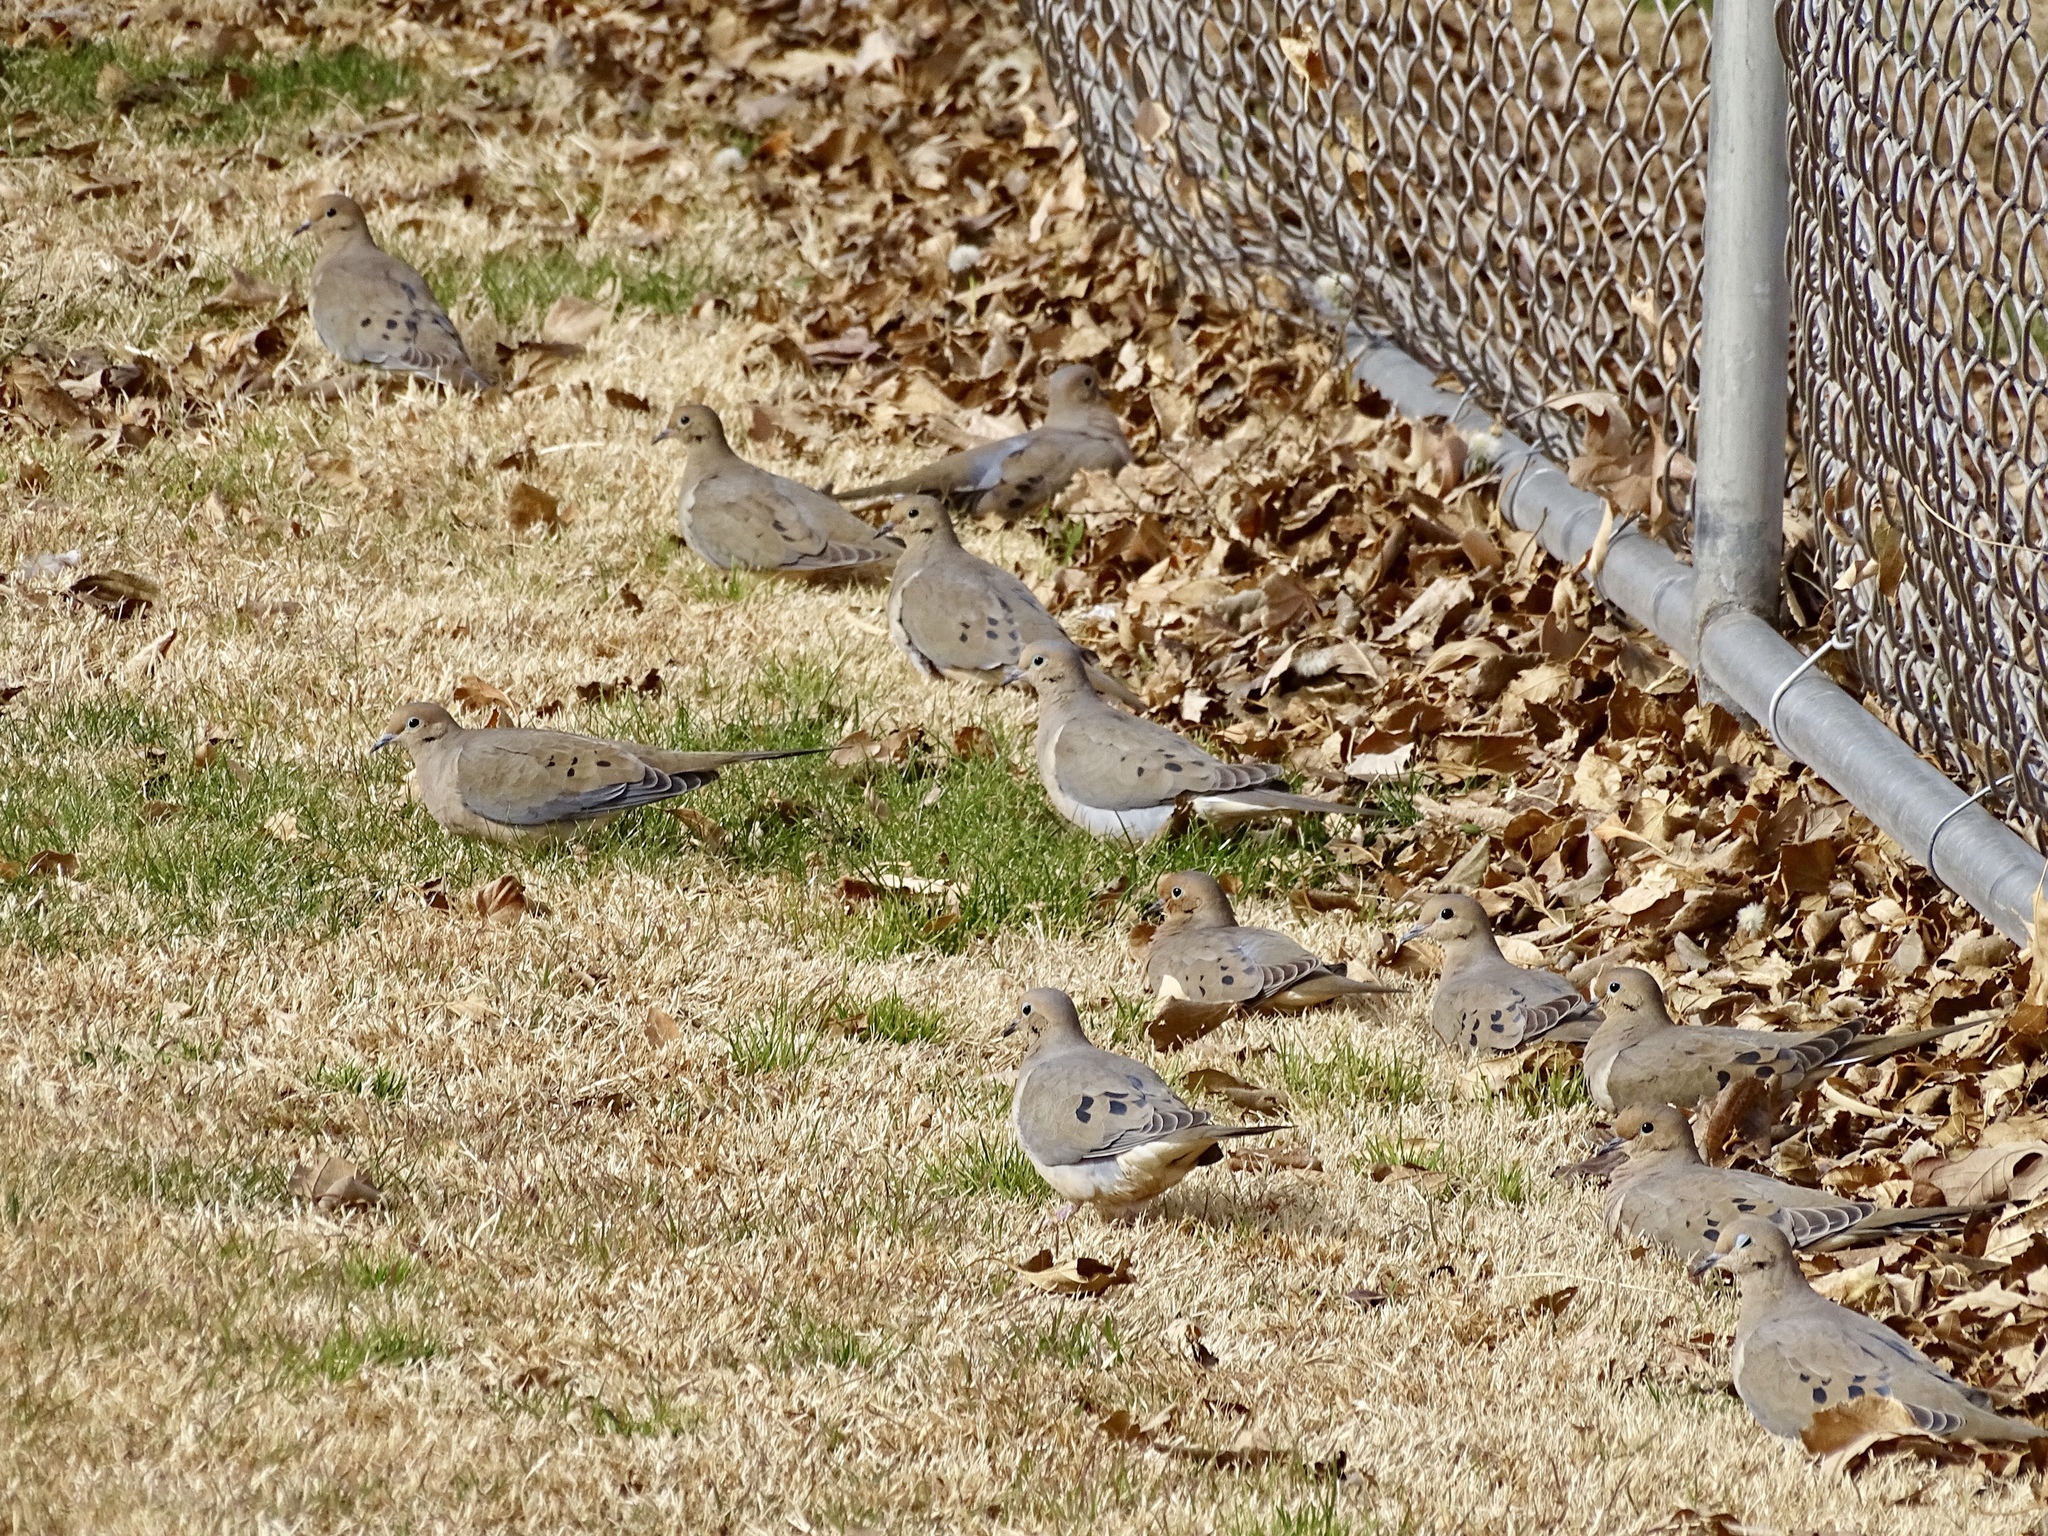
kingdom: Animalia
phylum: Chordata
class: Aves
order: Columbiformes
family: Columbidae
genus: Zenaida
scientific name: Zenaida macroura
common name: Mourning dove
